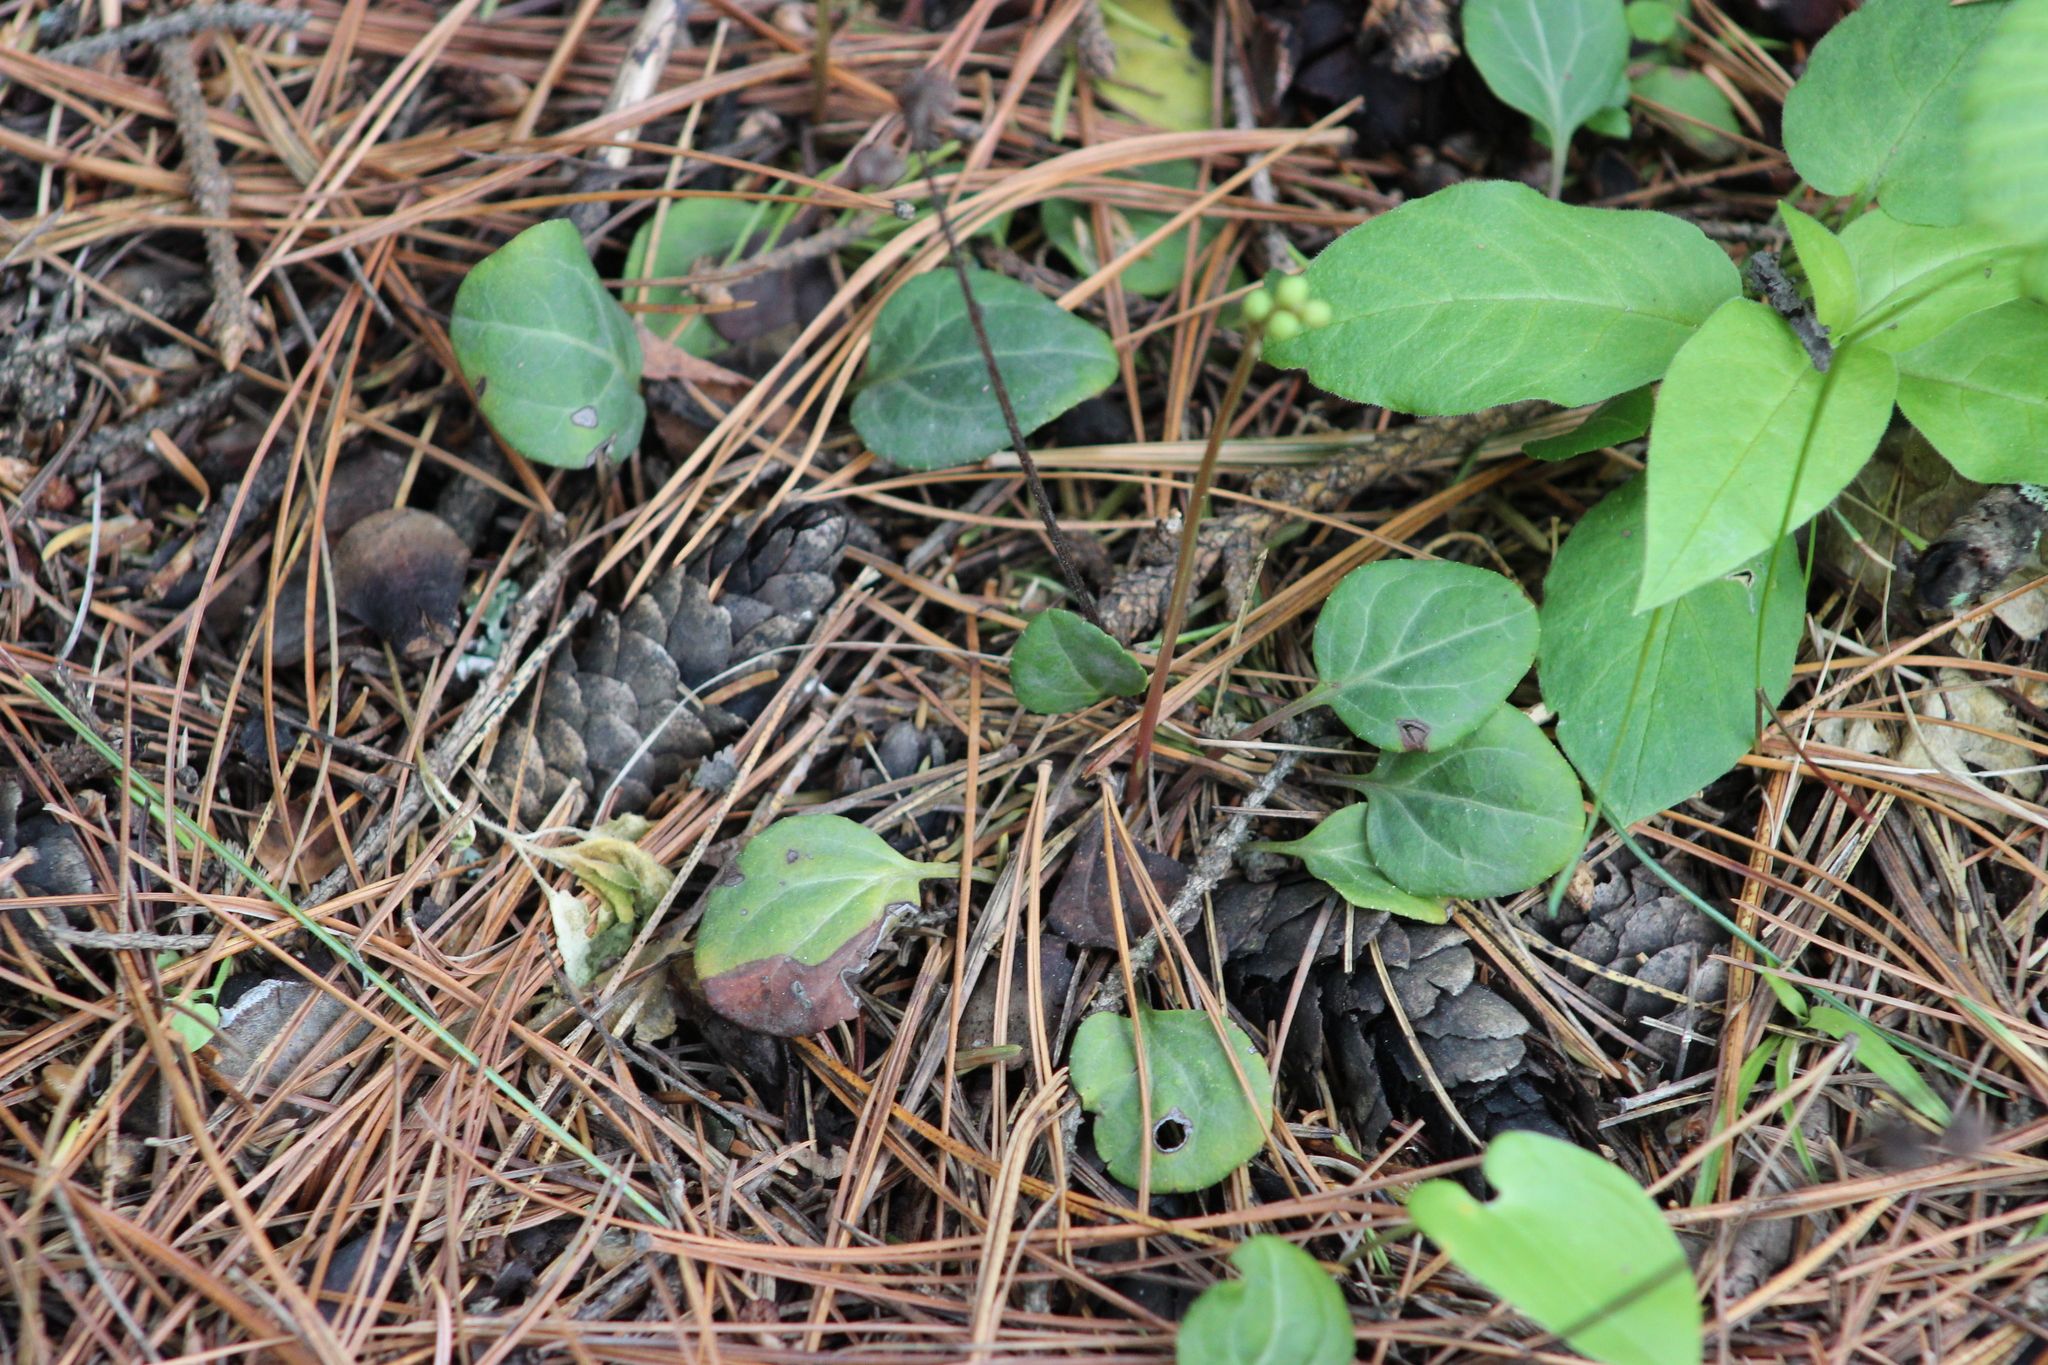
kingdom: Plantae
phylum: Tracheophyta
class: Magnoliopsida
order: Ericales
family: Ericaceae
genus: Pyrola
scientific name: Pyrola chlorantha
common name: Green wintergreen
